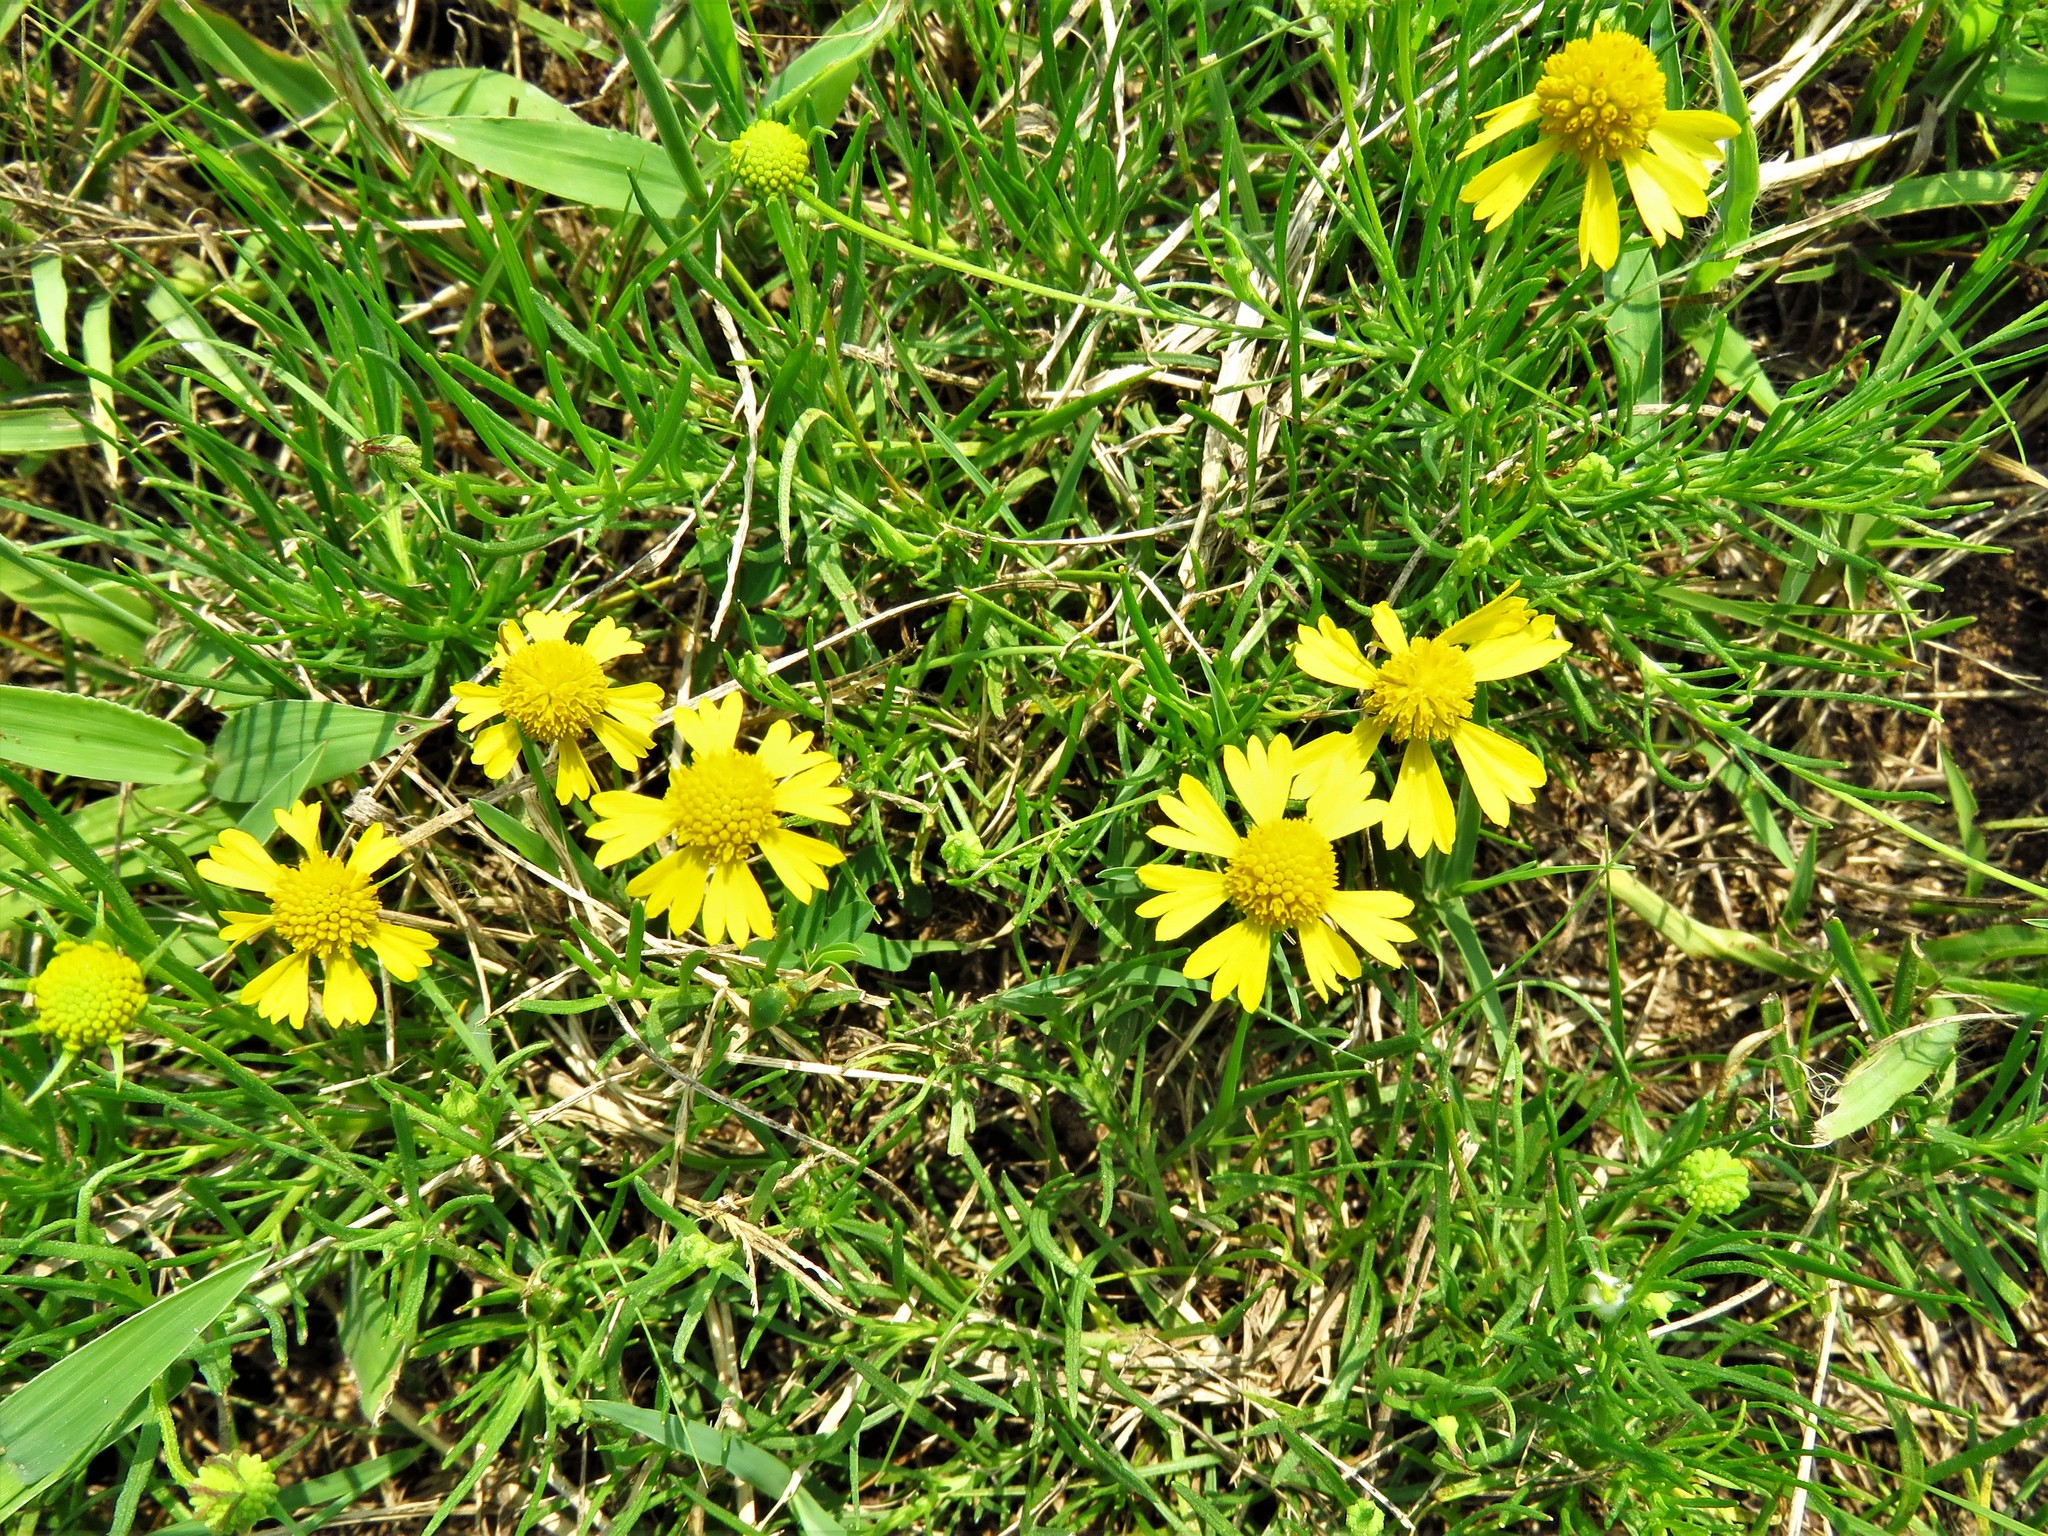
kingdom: Plantae
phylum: Tracheophyta
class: Magnoliopsida
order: Asterales
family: Asteraceae
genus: Helenium
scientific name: Helenium amarum
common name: Bitter sneezeweed
